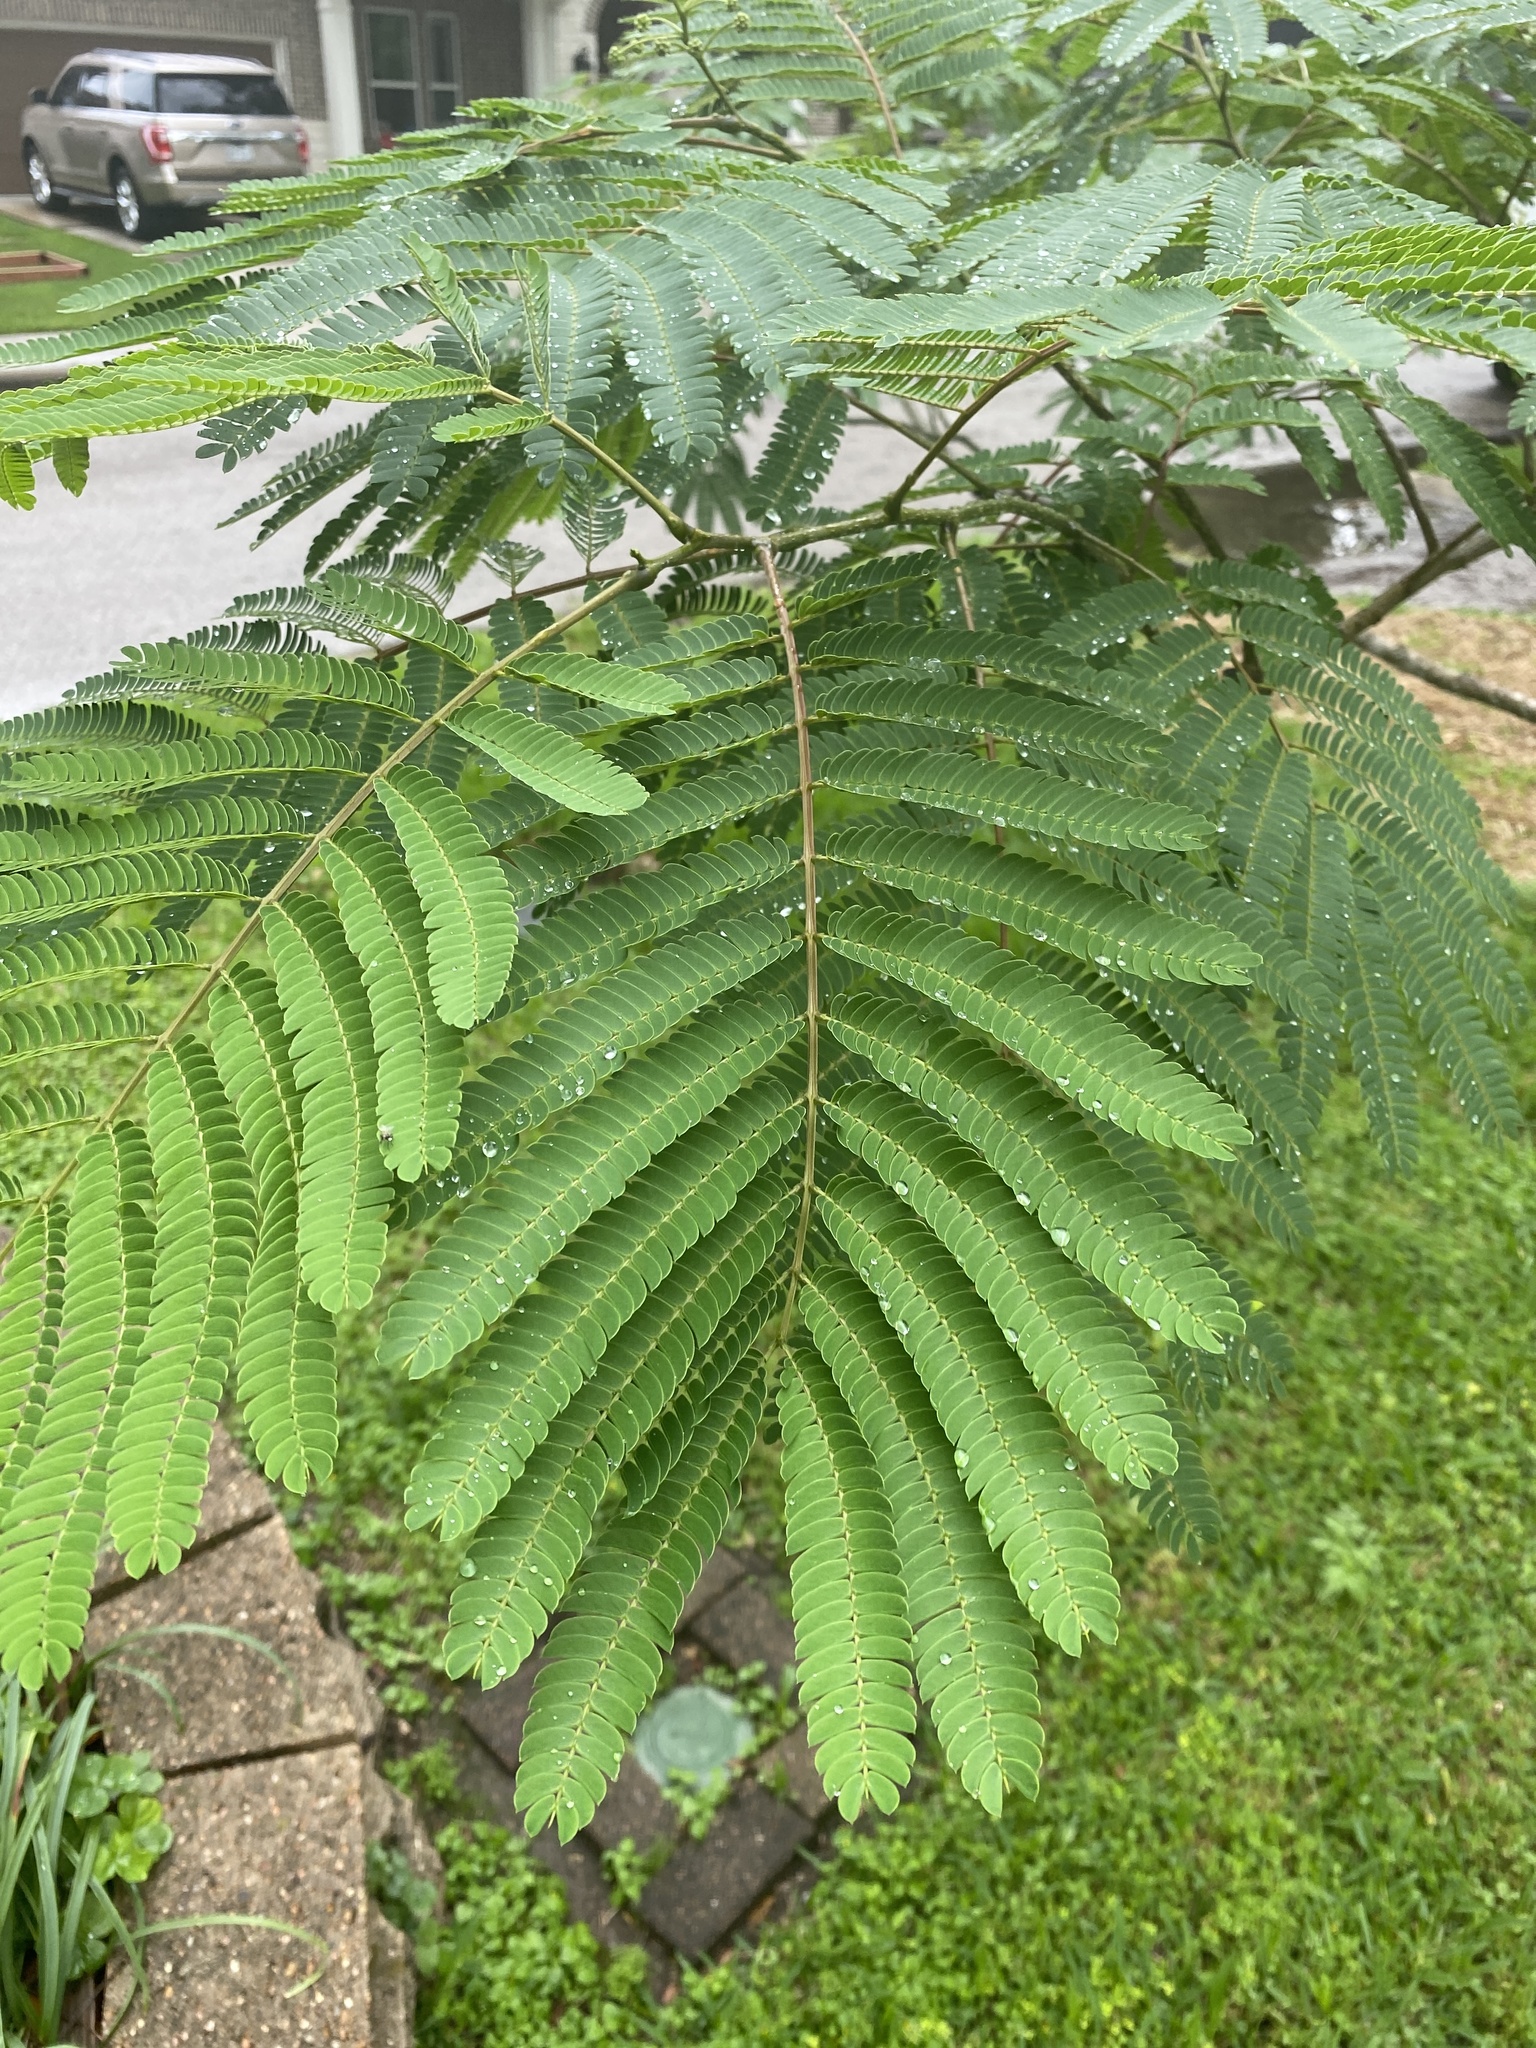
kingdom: Plantae
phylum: Tracheophyta
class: Magnoliopsida
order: Fabales
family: Fabaceae
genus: Albizia
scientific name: Albizia julibrissin
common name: Silktree
